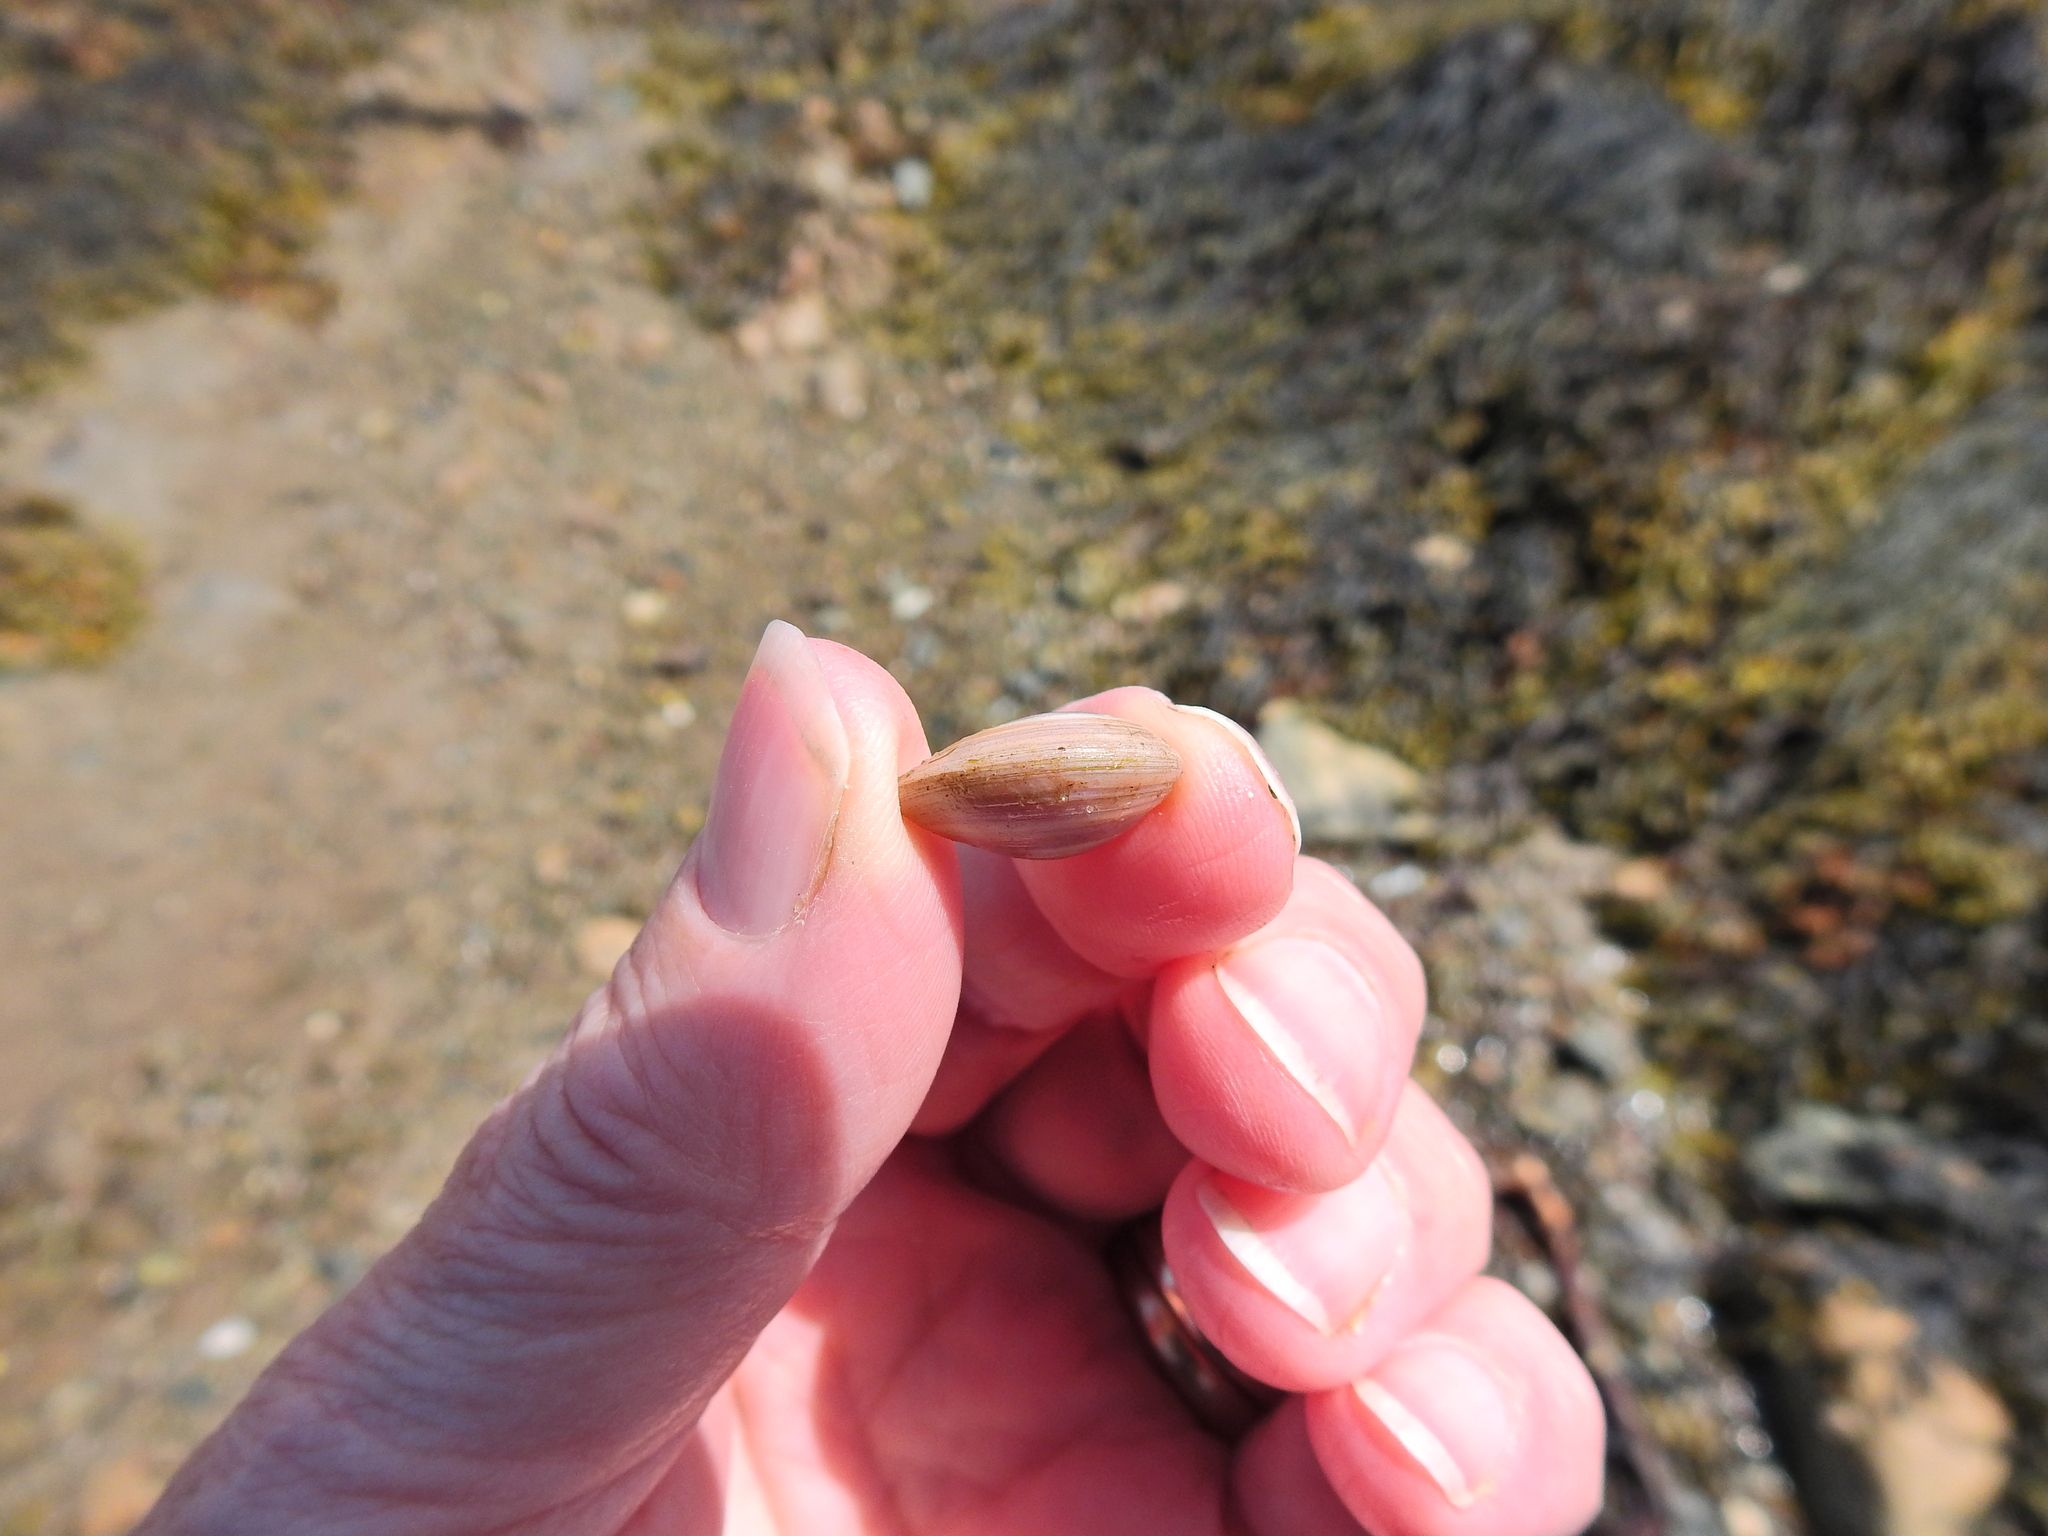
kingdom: Animalia
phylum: Mollusca
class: Bivalvia
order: Cardiida
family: Tellinidae
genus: Macoma
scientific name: Macoma balthica
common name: Baltic tellin
